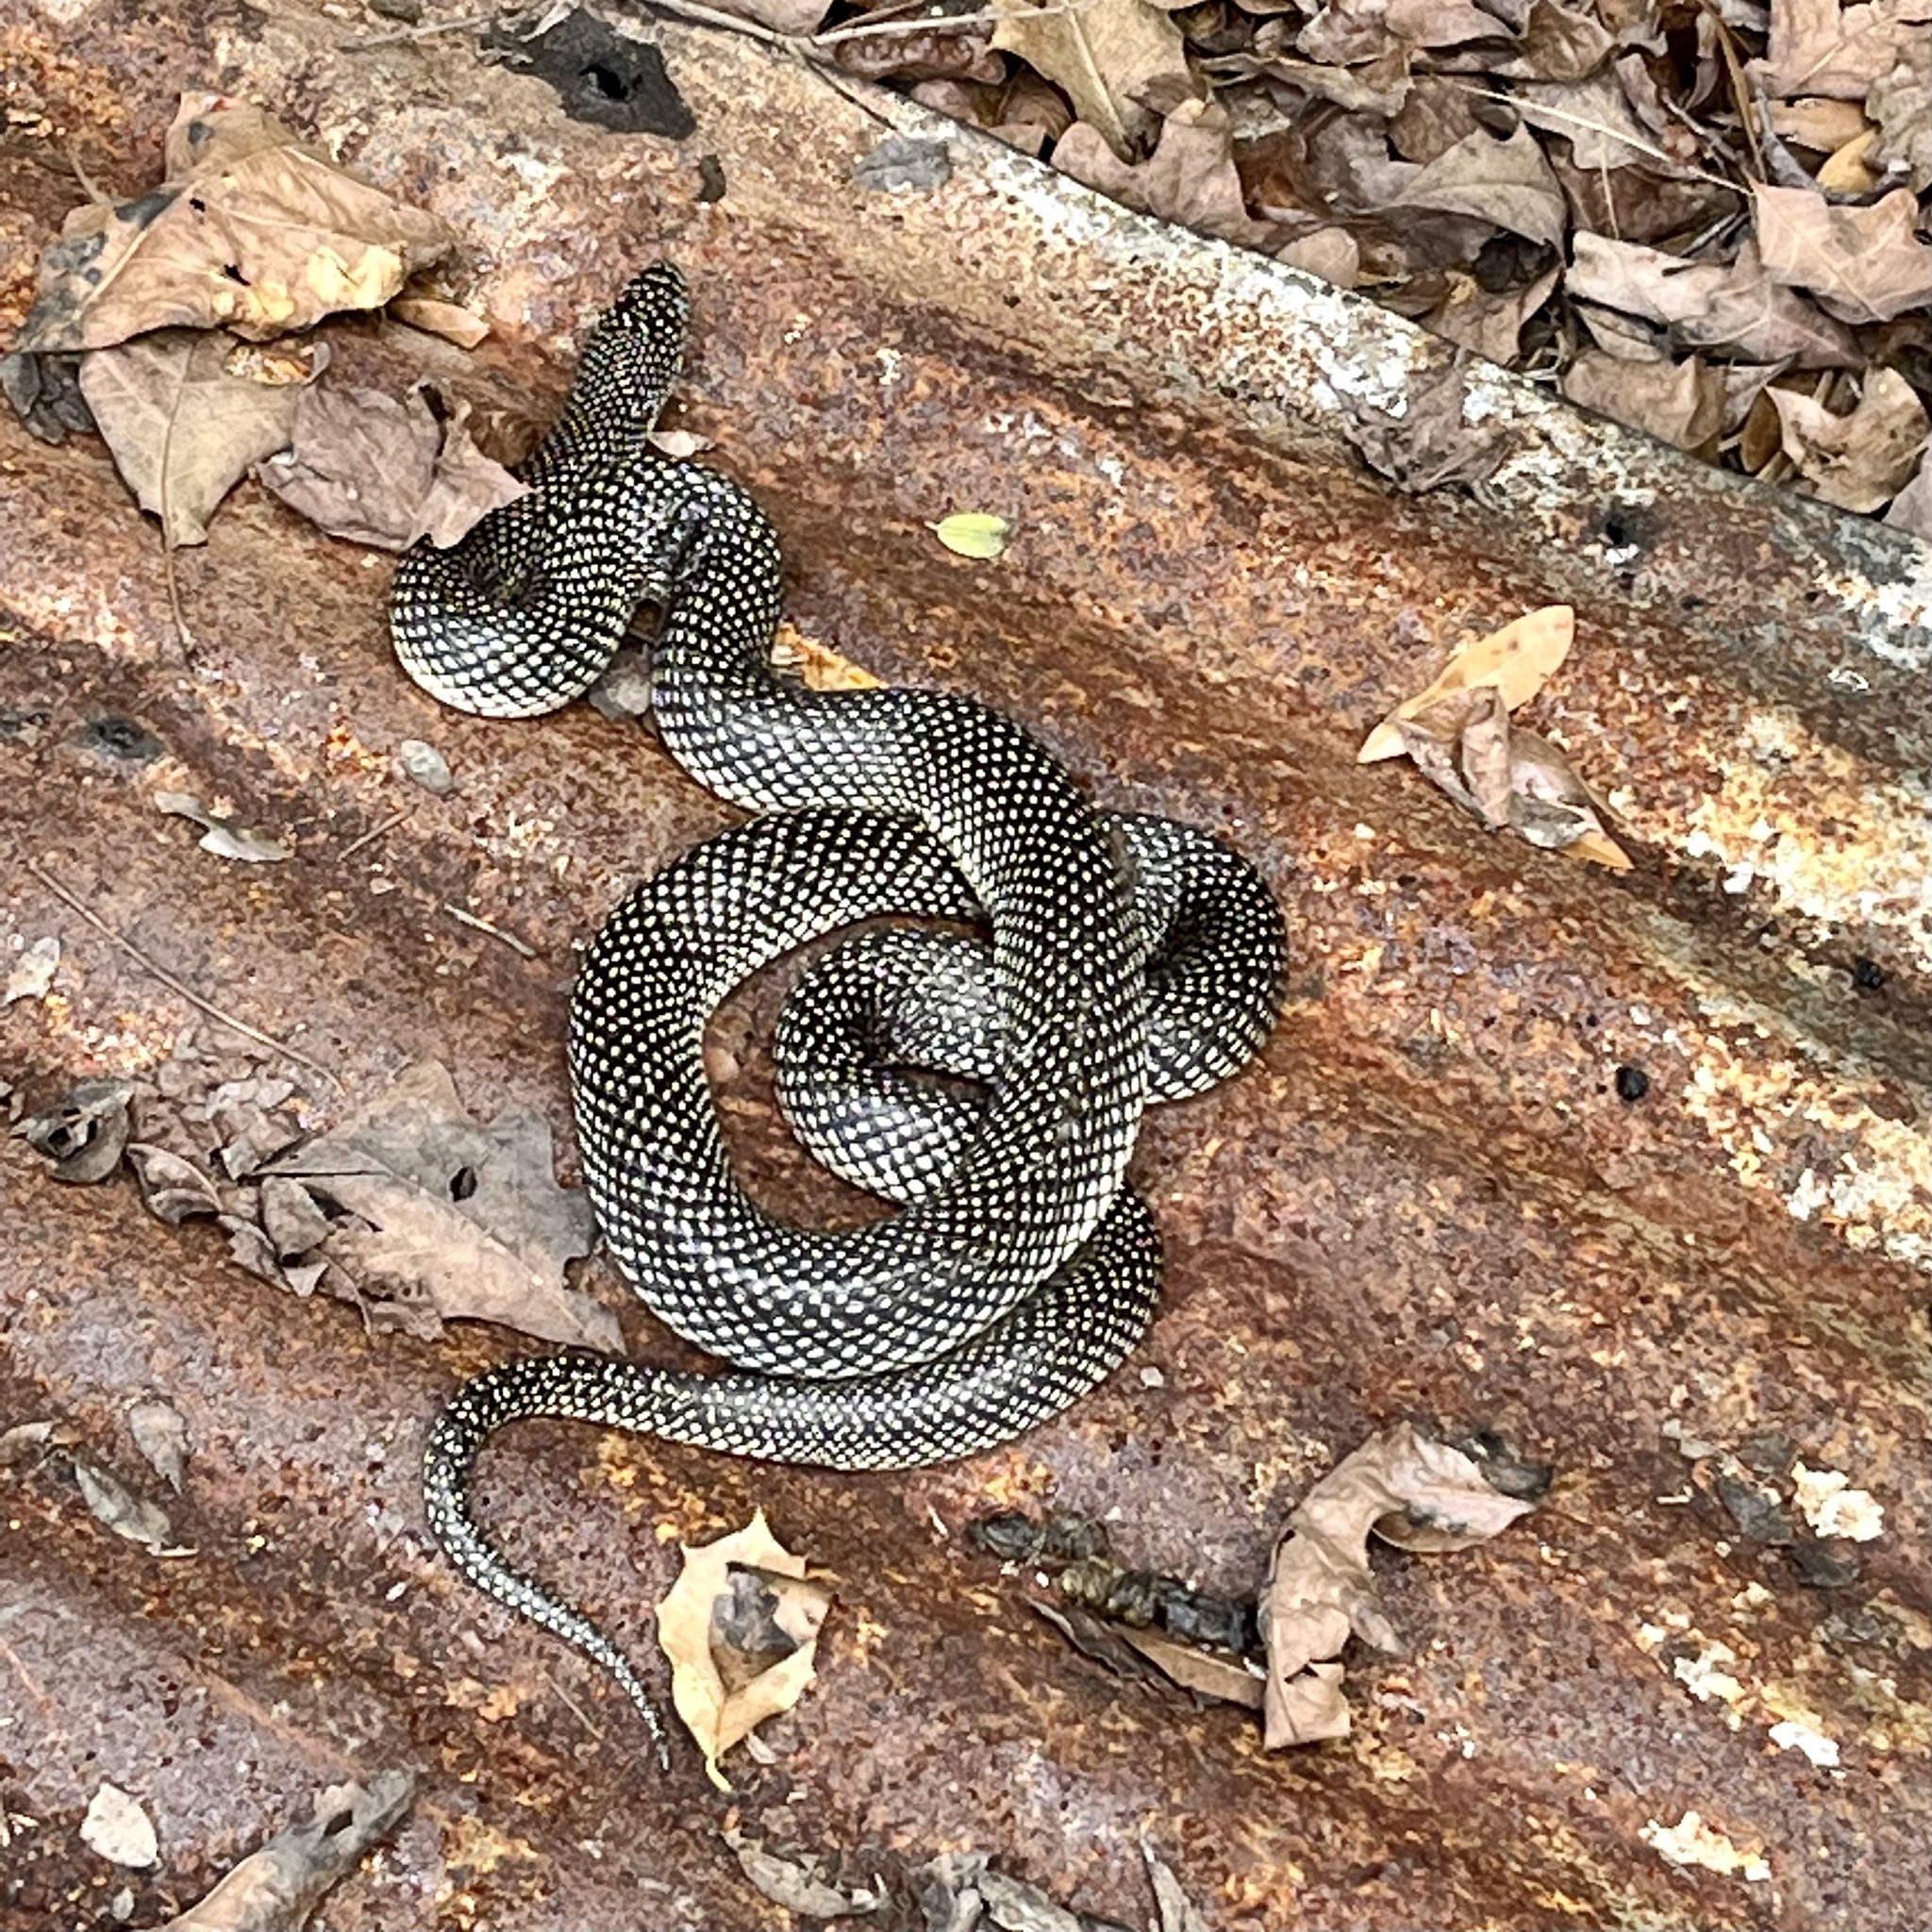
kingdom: Animalia
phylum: Chordata
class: Squamata
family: Colubridae
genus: Lampropeltis
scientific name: Lampropeltis holbrooki
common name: Speckled kingsnake
